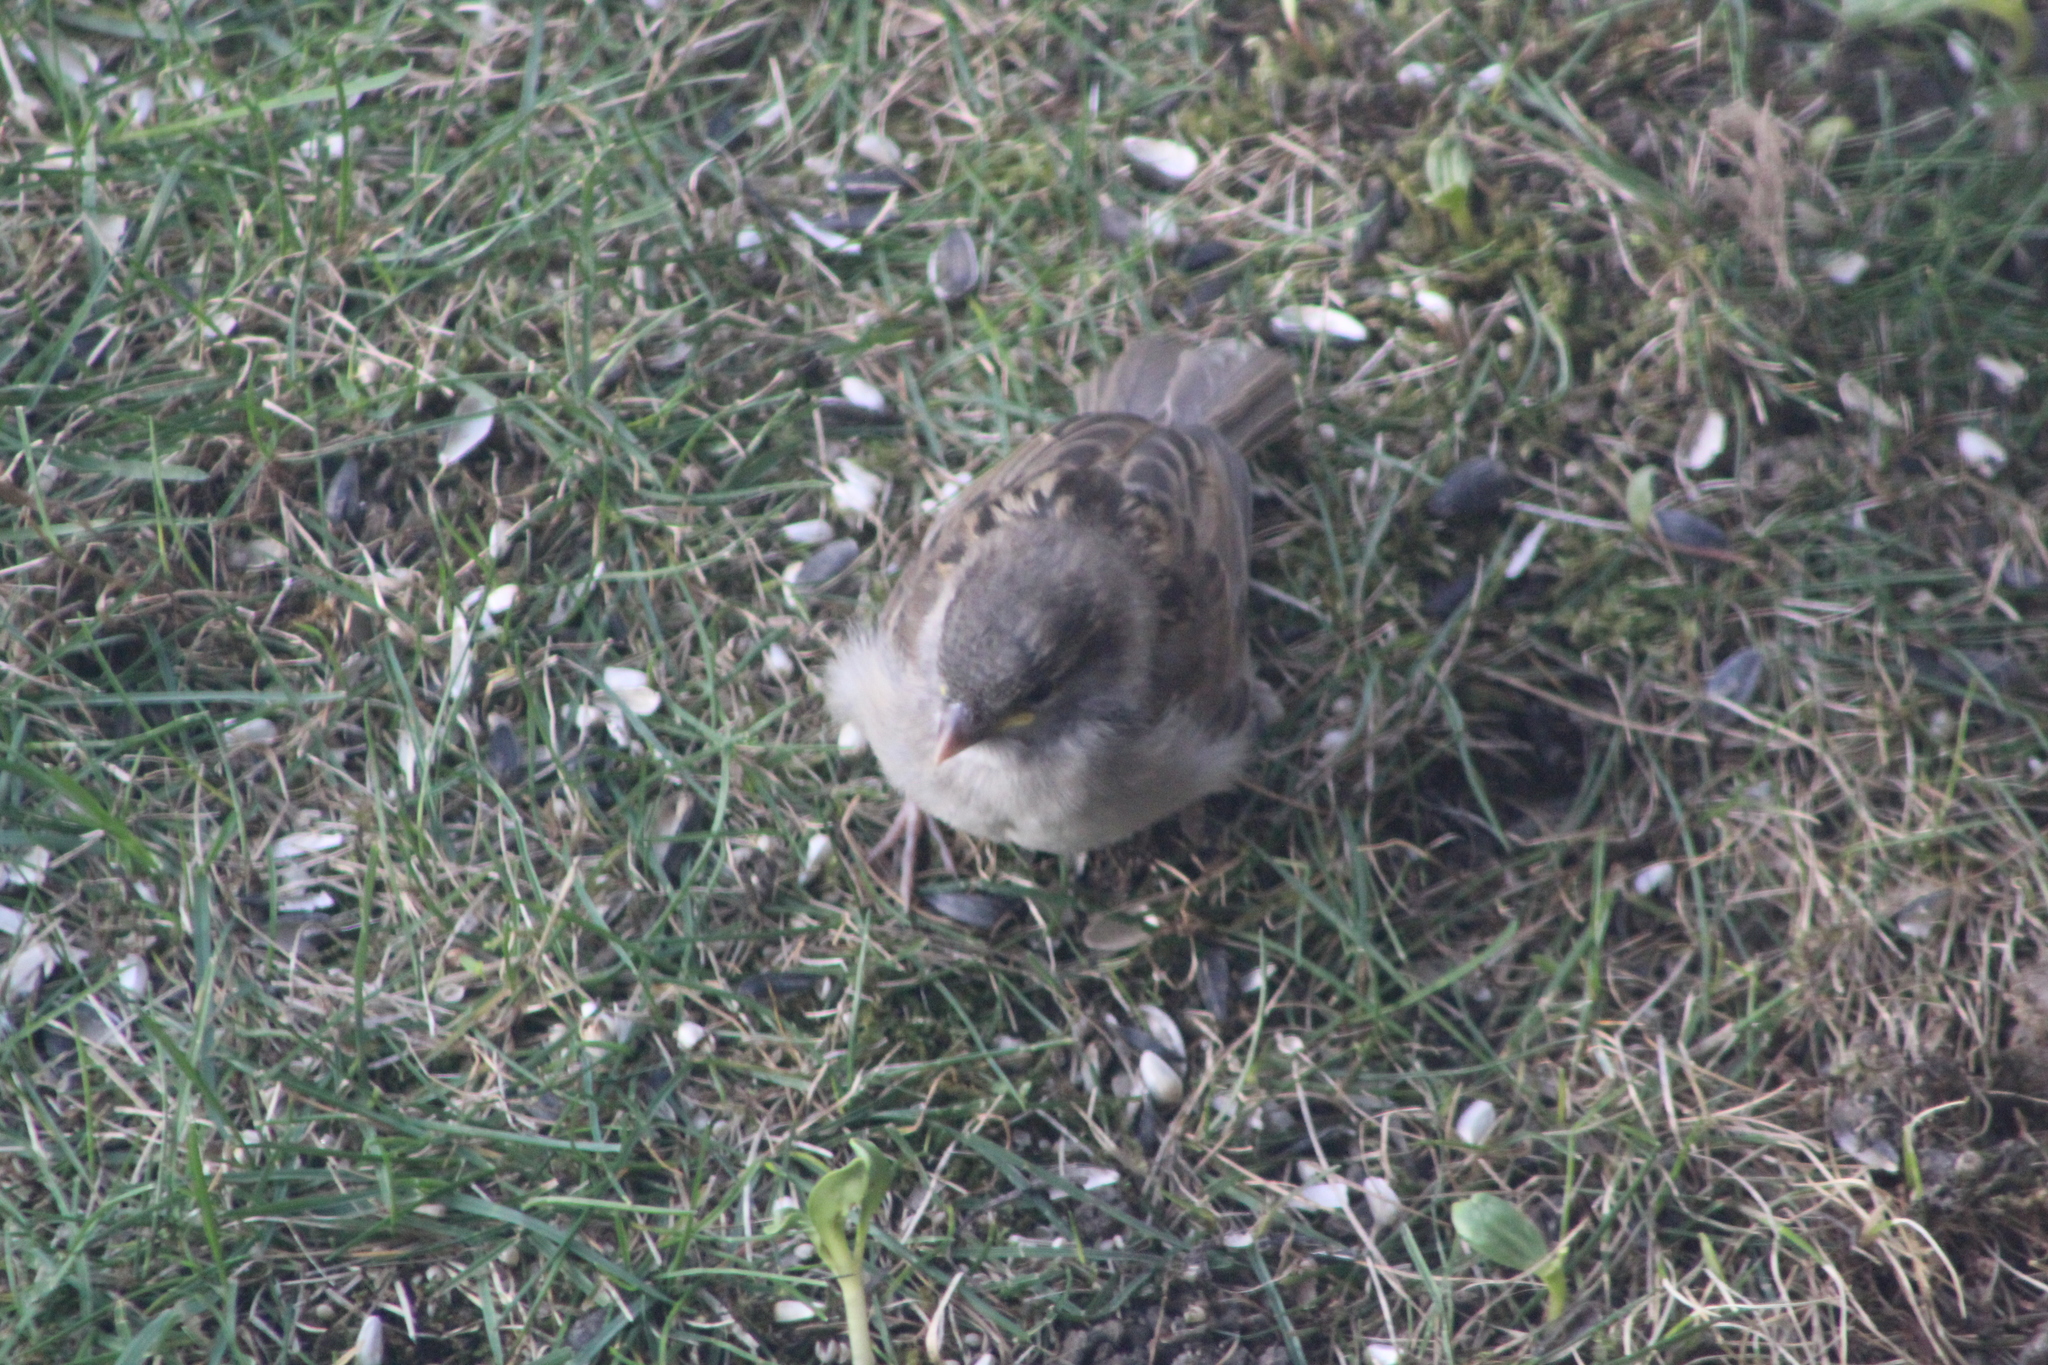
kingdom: Animalia
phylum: Chordata
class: Aves
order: Passeriformes
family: Passeridae
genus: Passer
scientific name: Passer domesticus
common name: House sparrow
